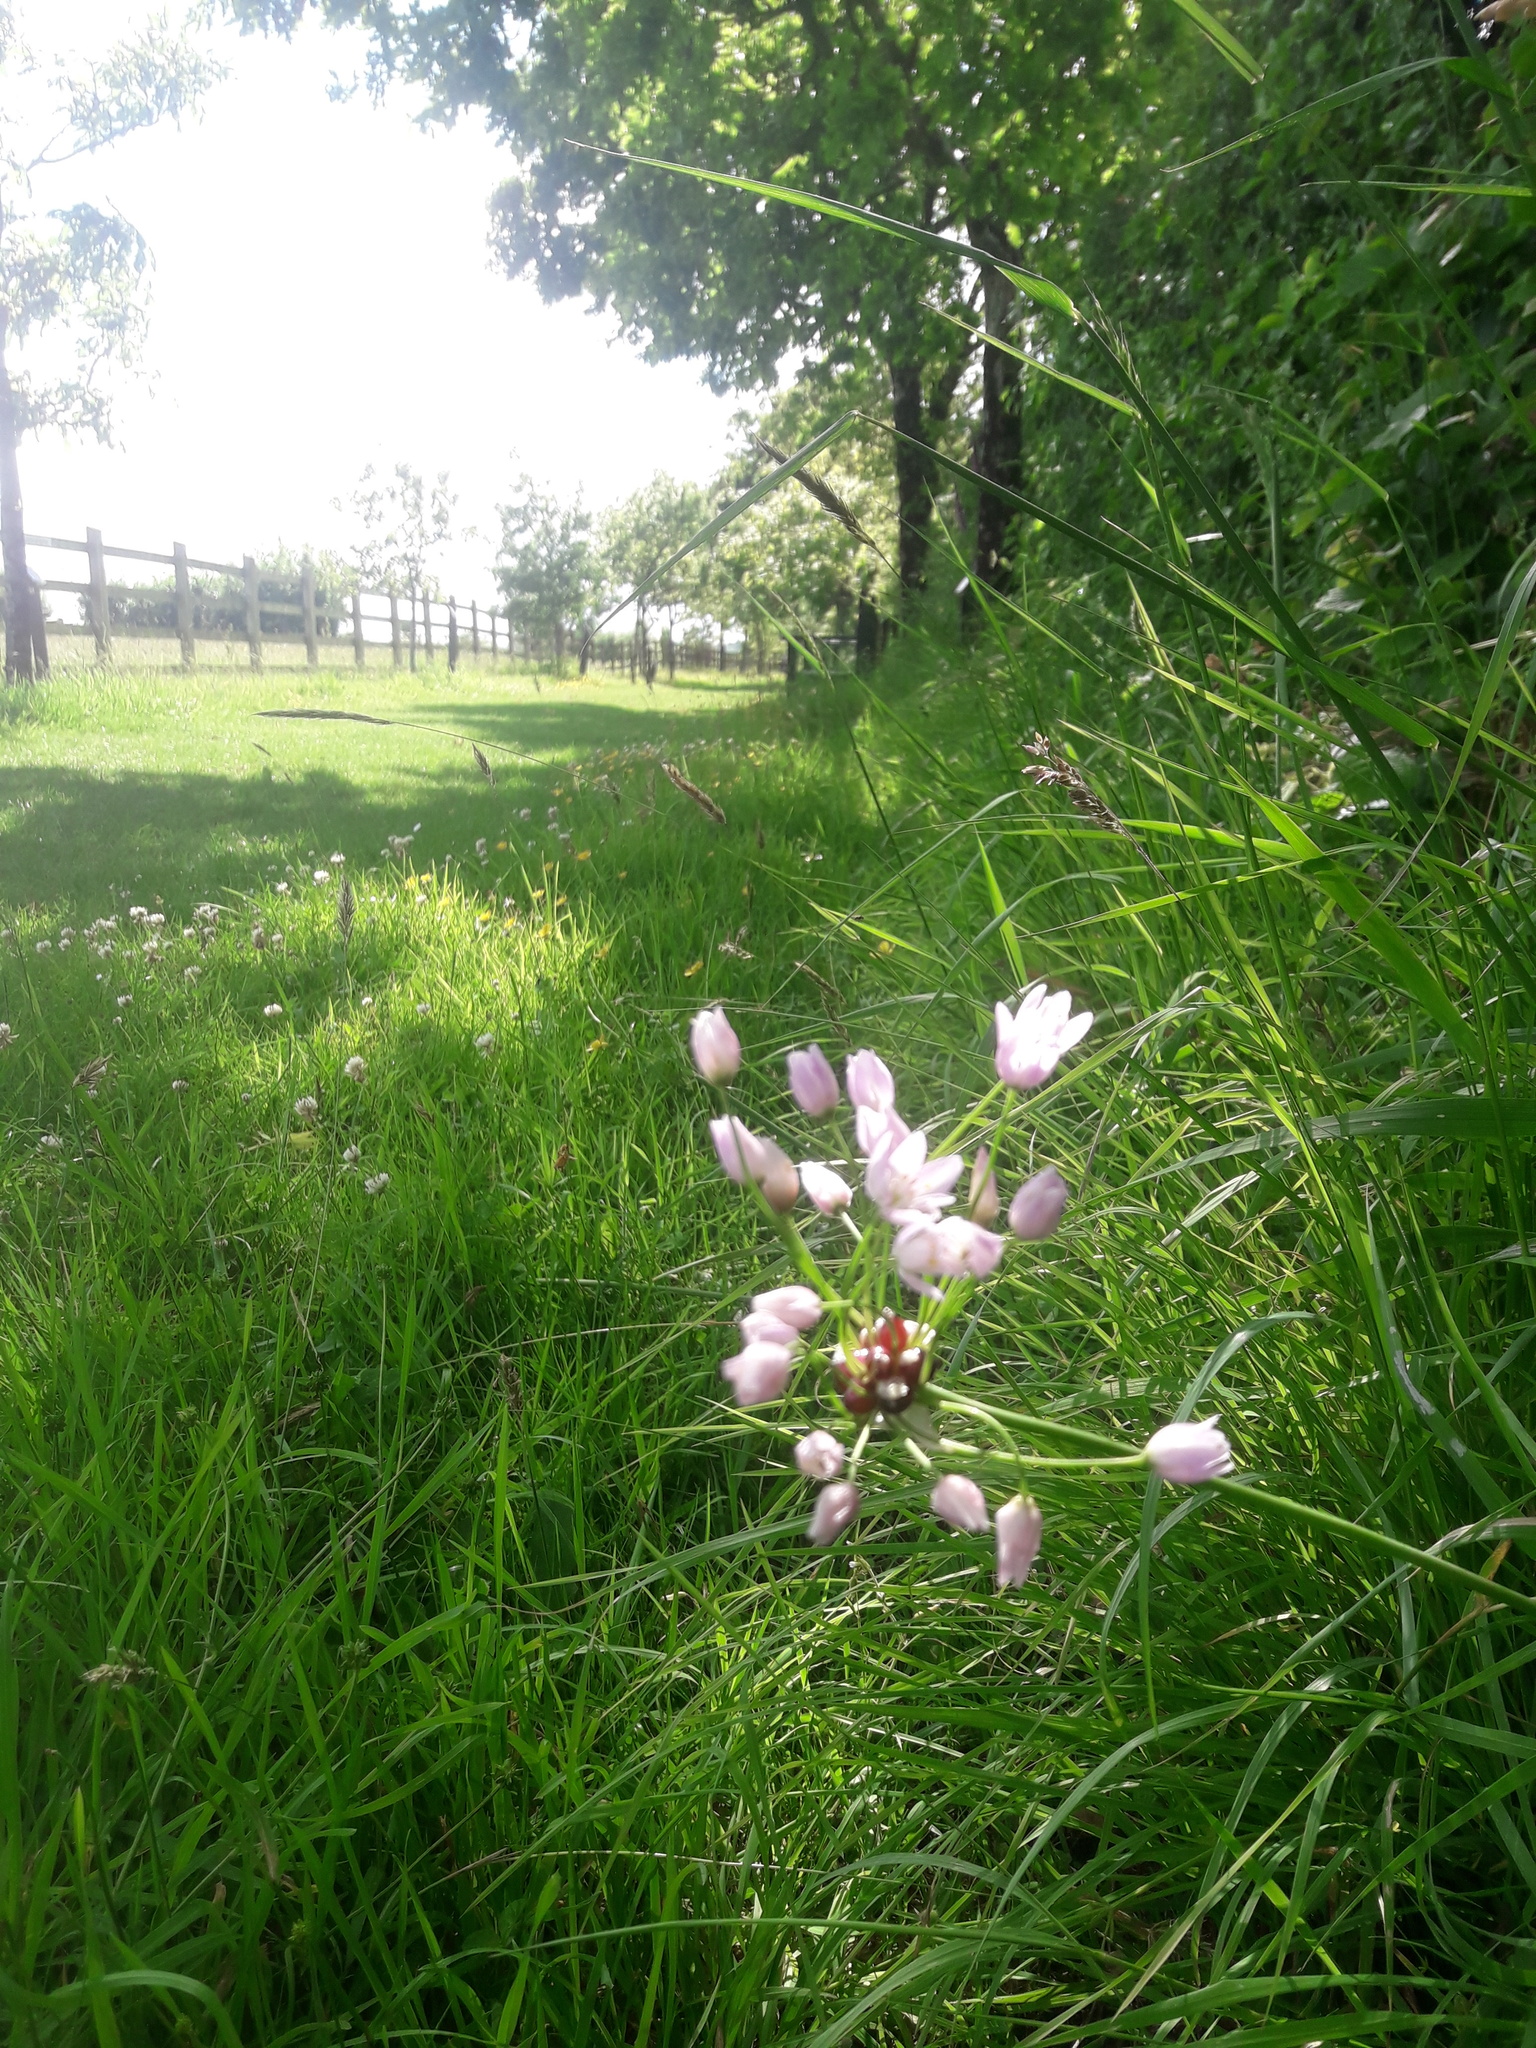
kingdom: Plantae
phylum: Tracheophyta
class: Liliopsida
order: Asparagales
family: Amaryllidaceae
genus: Allium
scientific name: Allium roseum
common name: Rosy garlic
